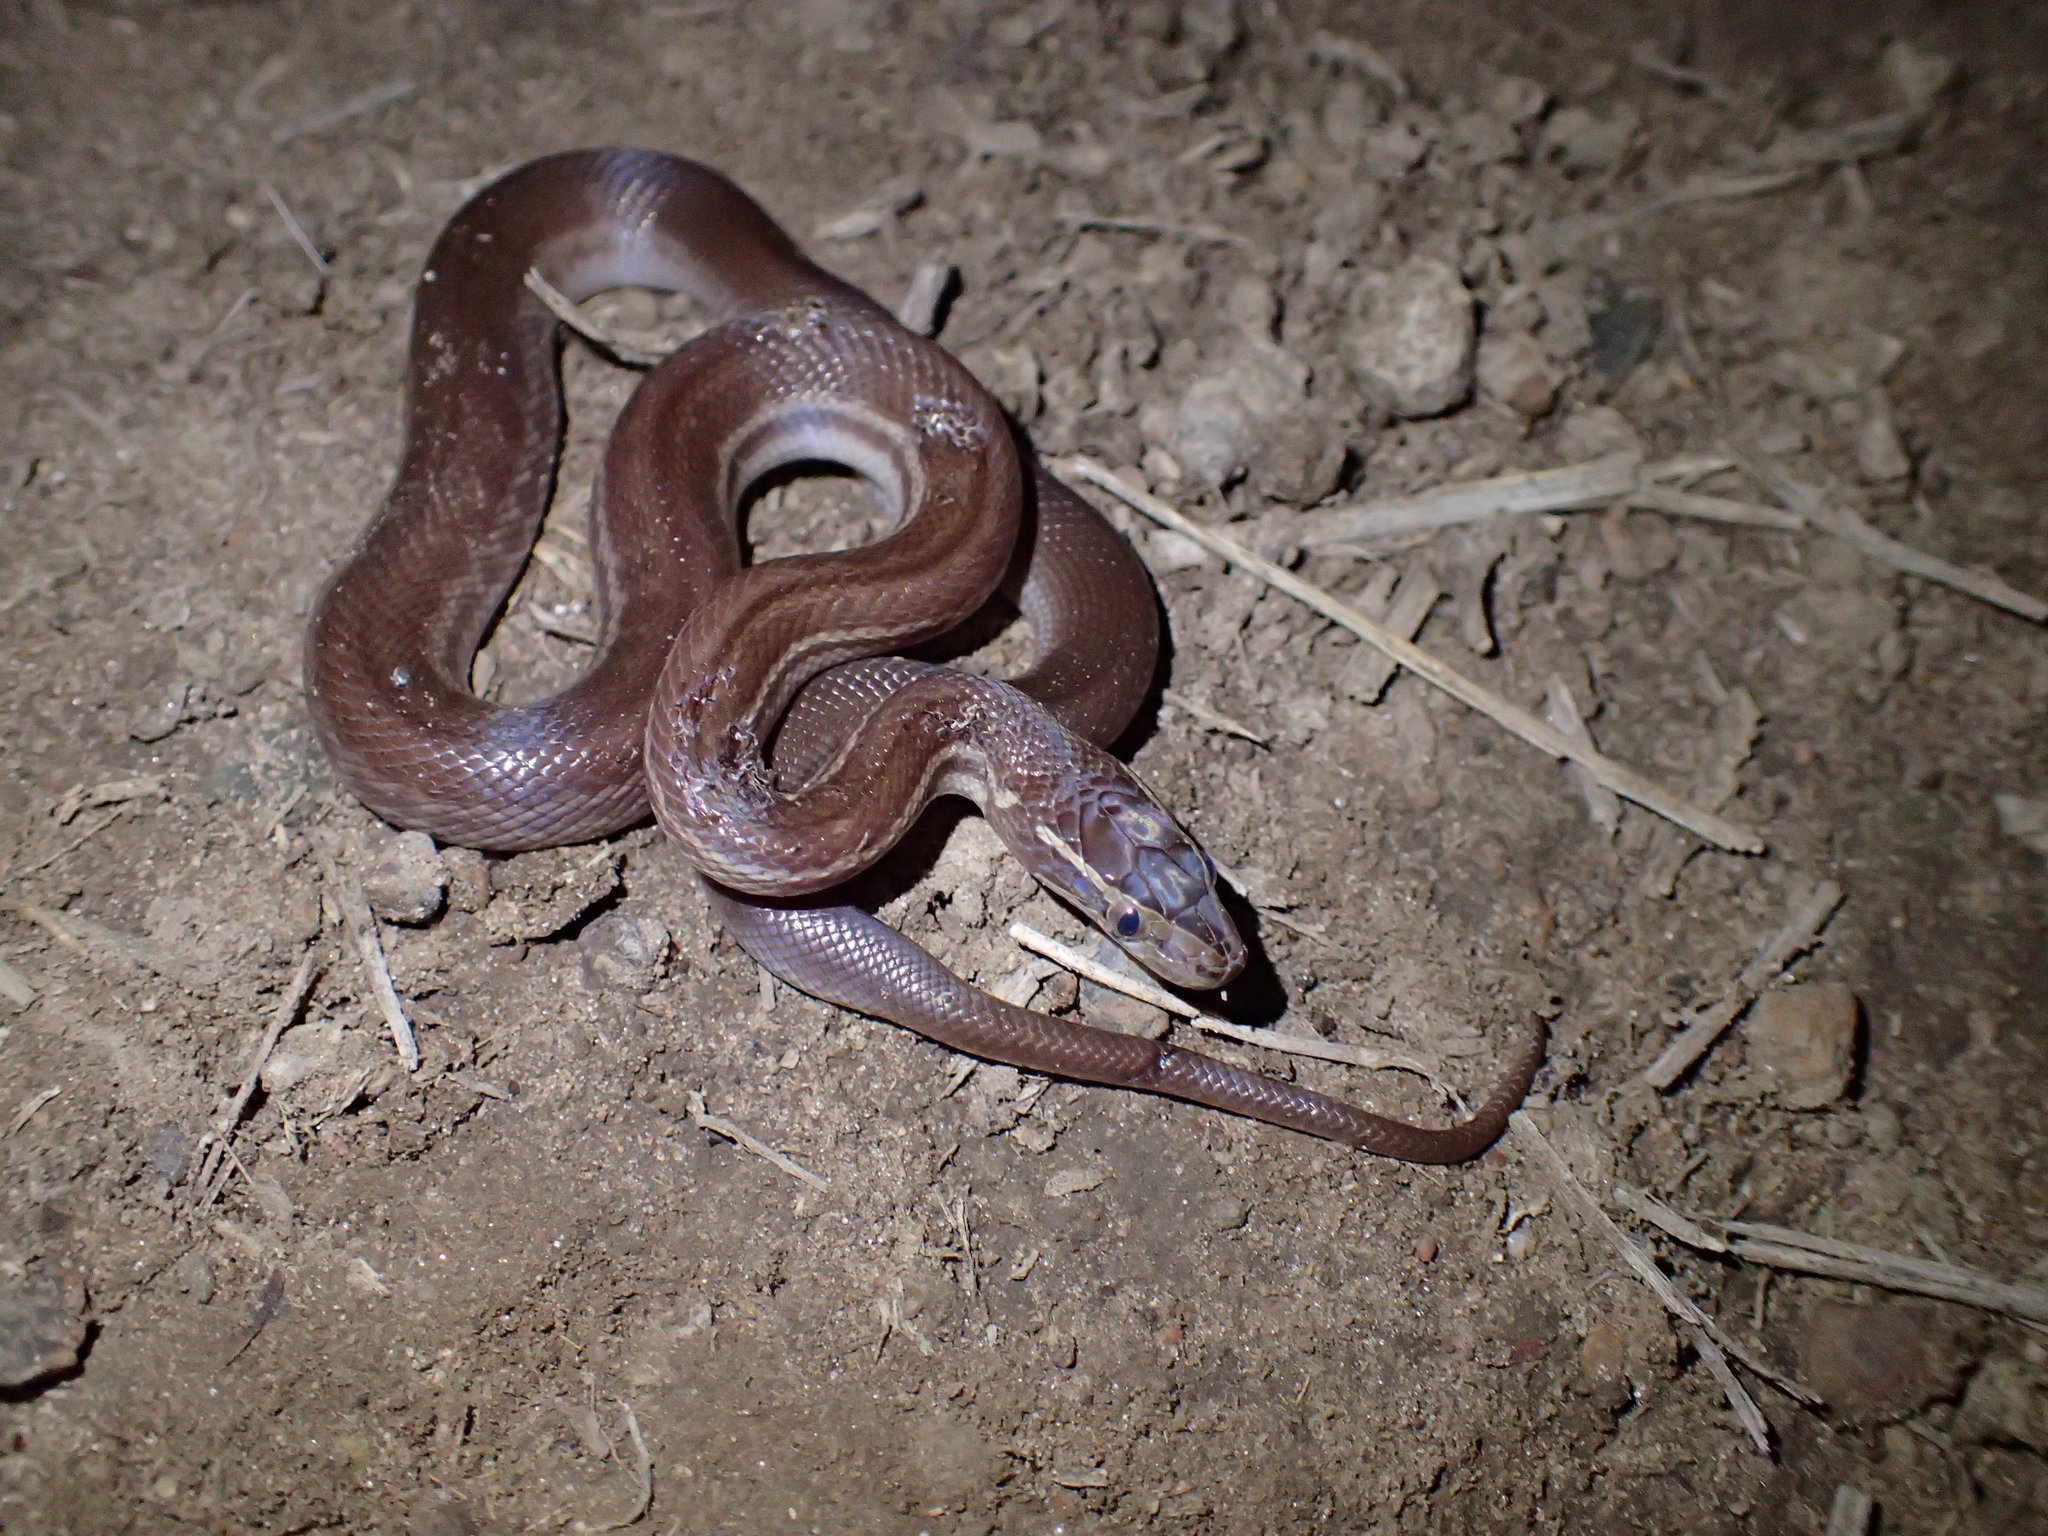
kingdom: Animalia
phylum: Chordata
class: Squamata
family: Lamprophiidae
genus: Boaedon
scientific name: Boaedon capensis
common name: Brown house snake
